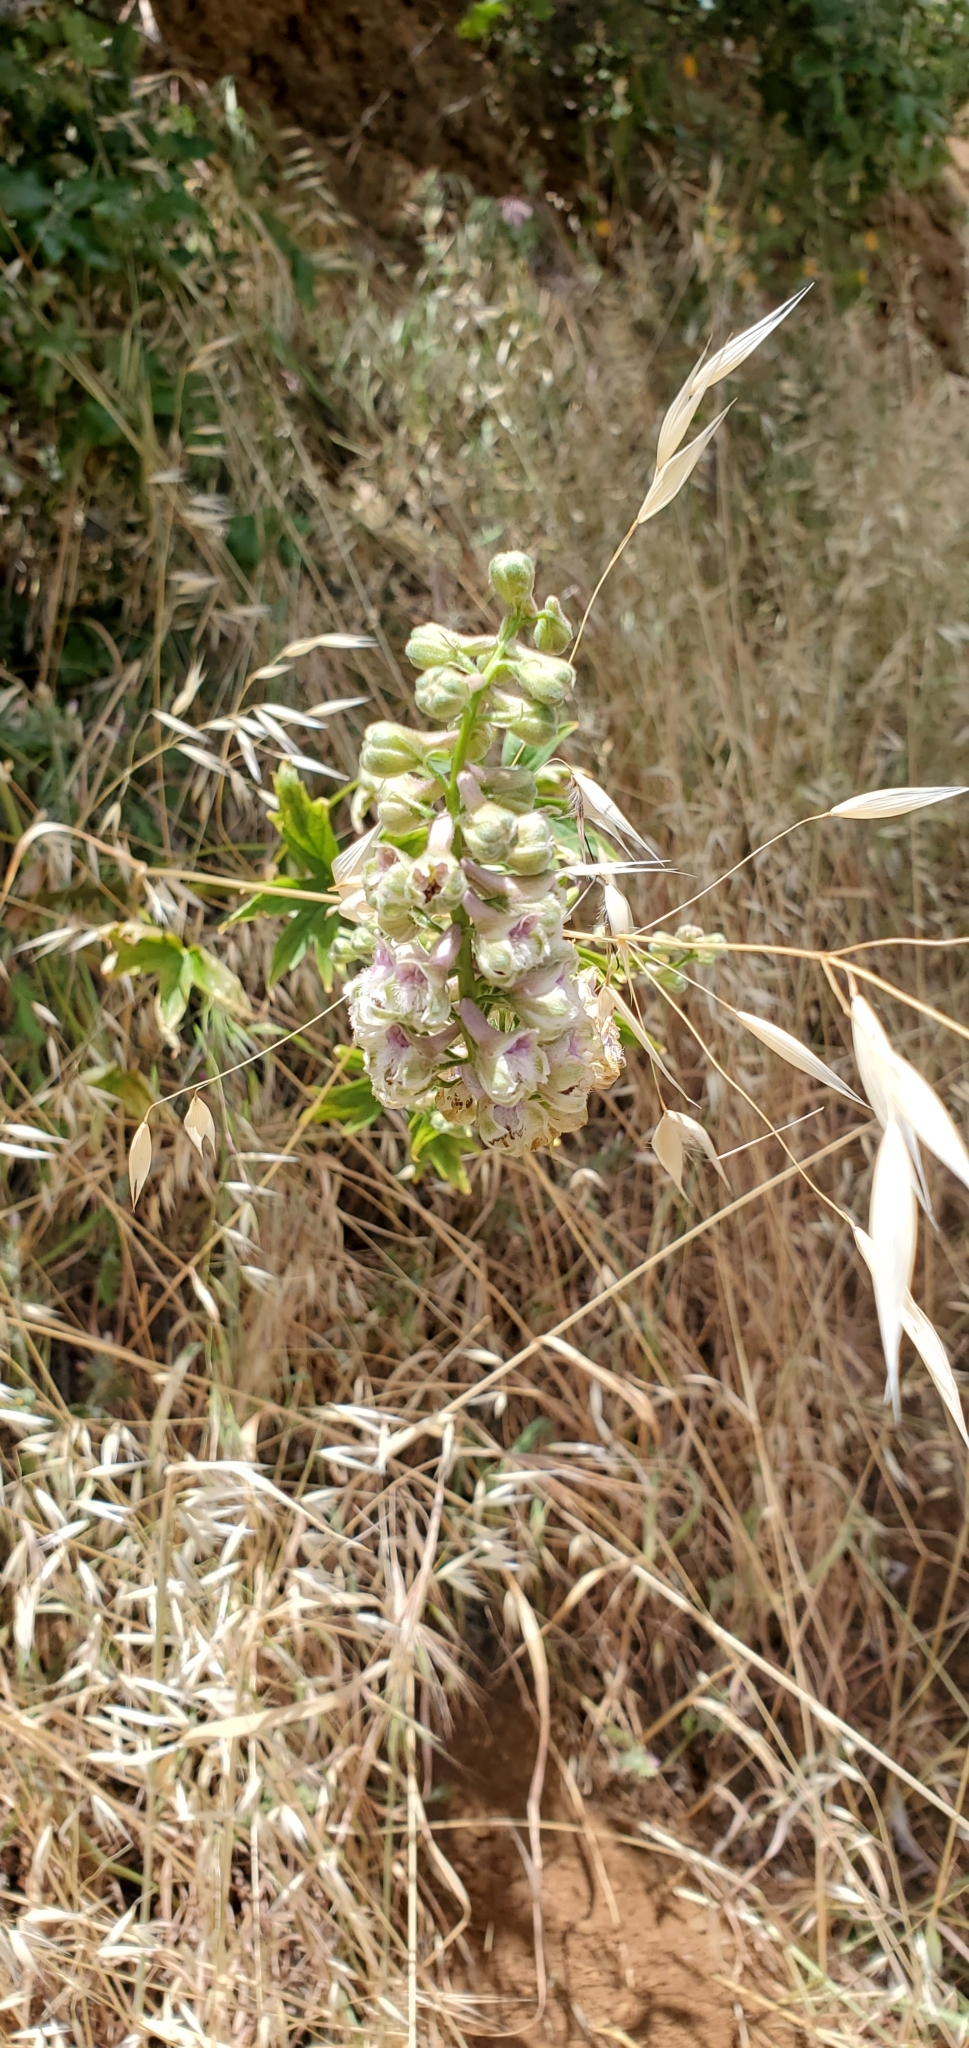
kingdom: Plantae
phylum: Tracheophyta
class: Magnoliopsida
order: Ranunculales
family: Ranunculaceae
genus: Delphinium
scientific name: Delphinium californicum
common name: California larkspur
